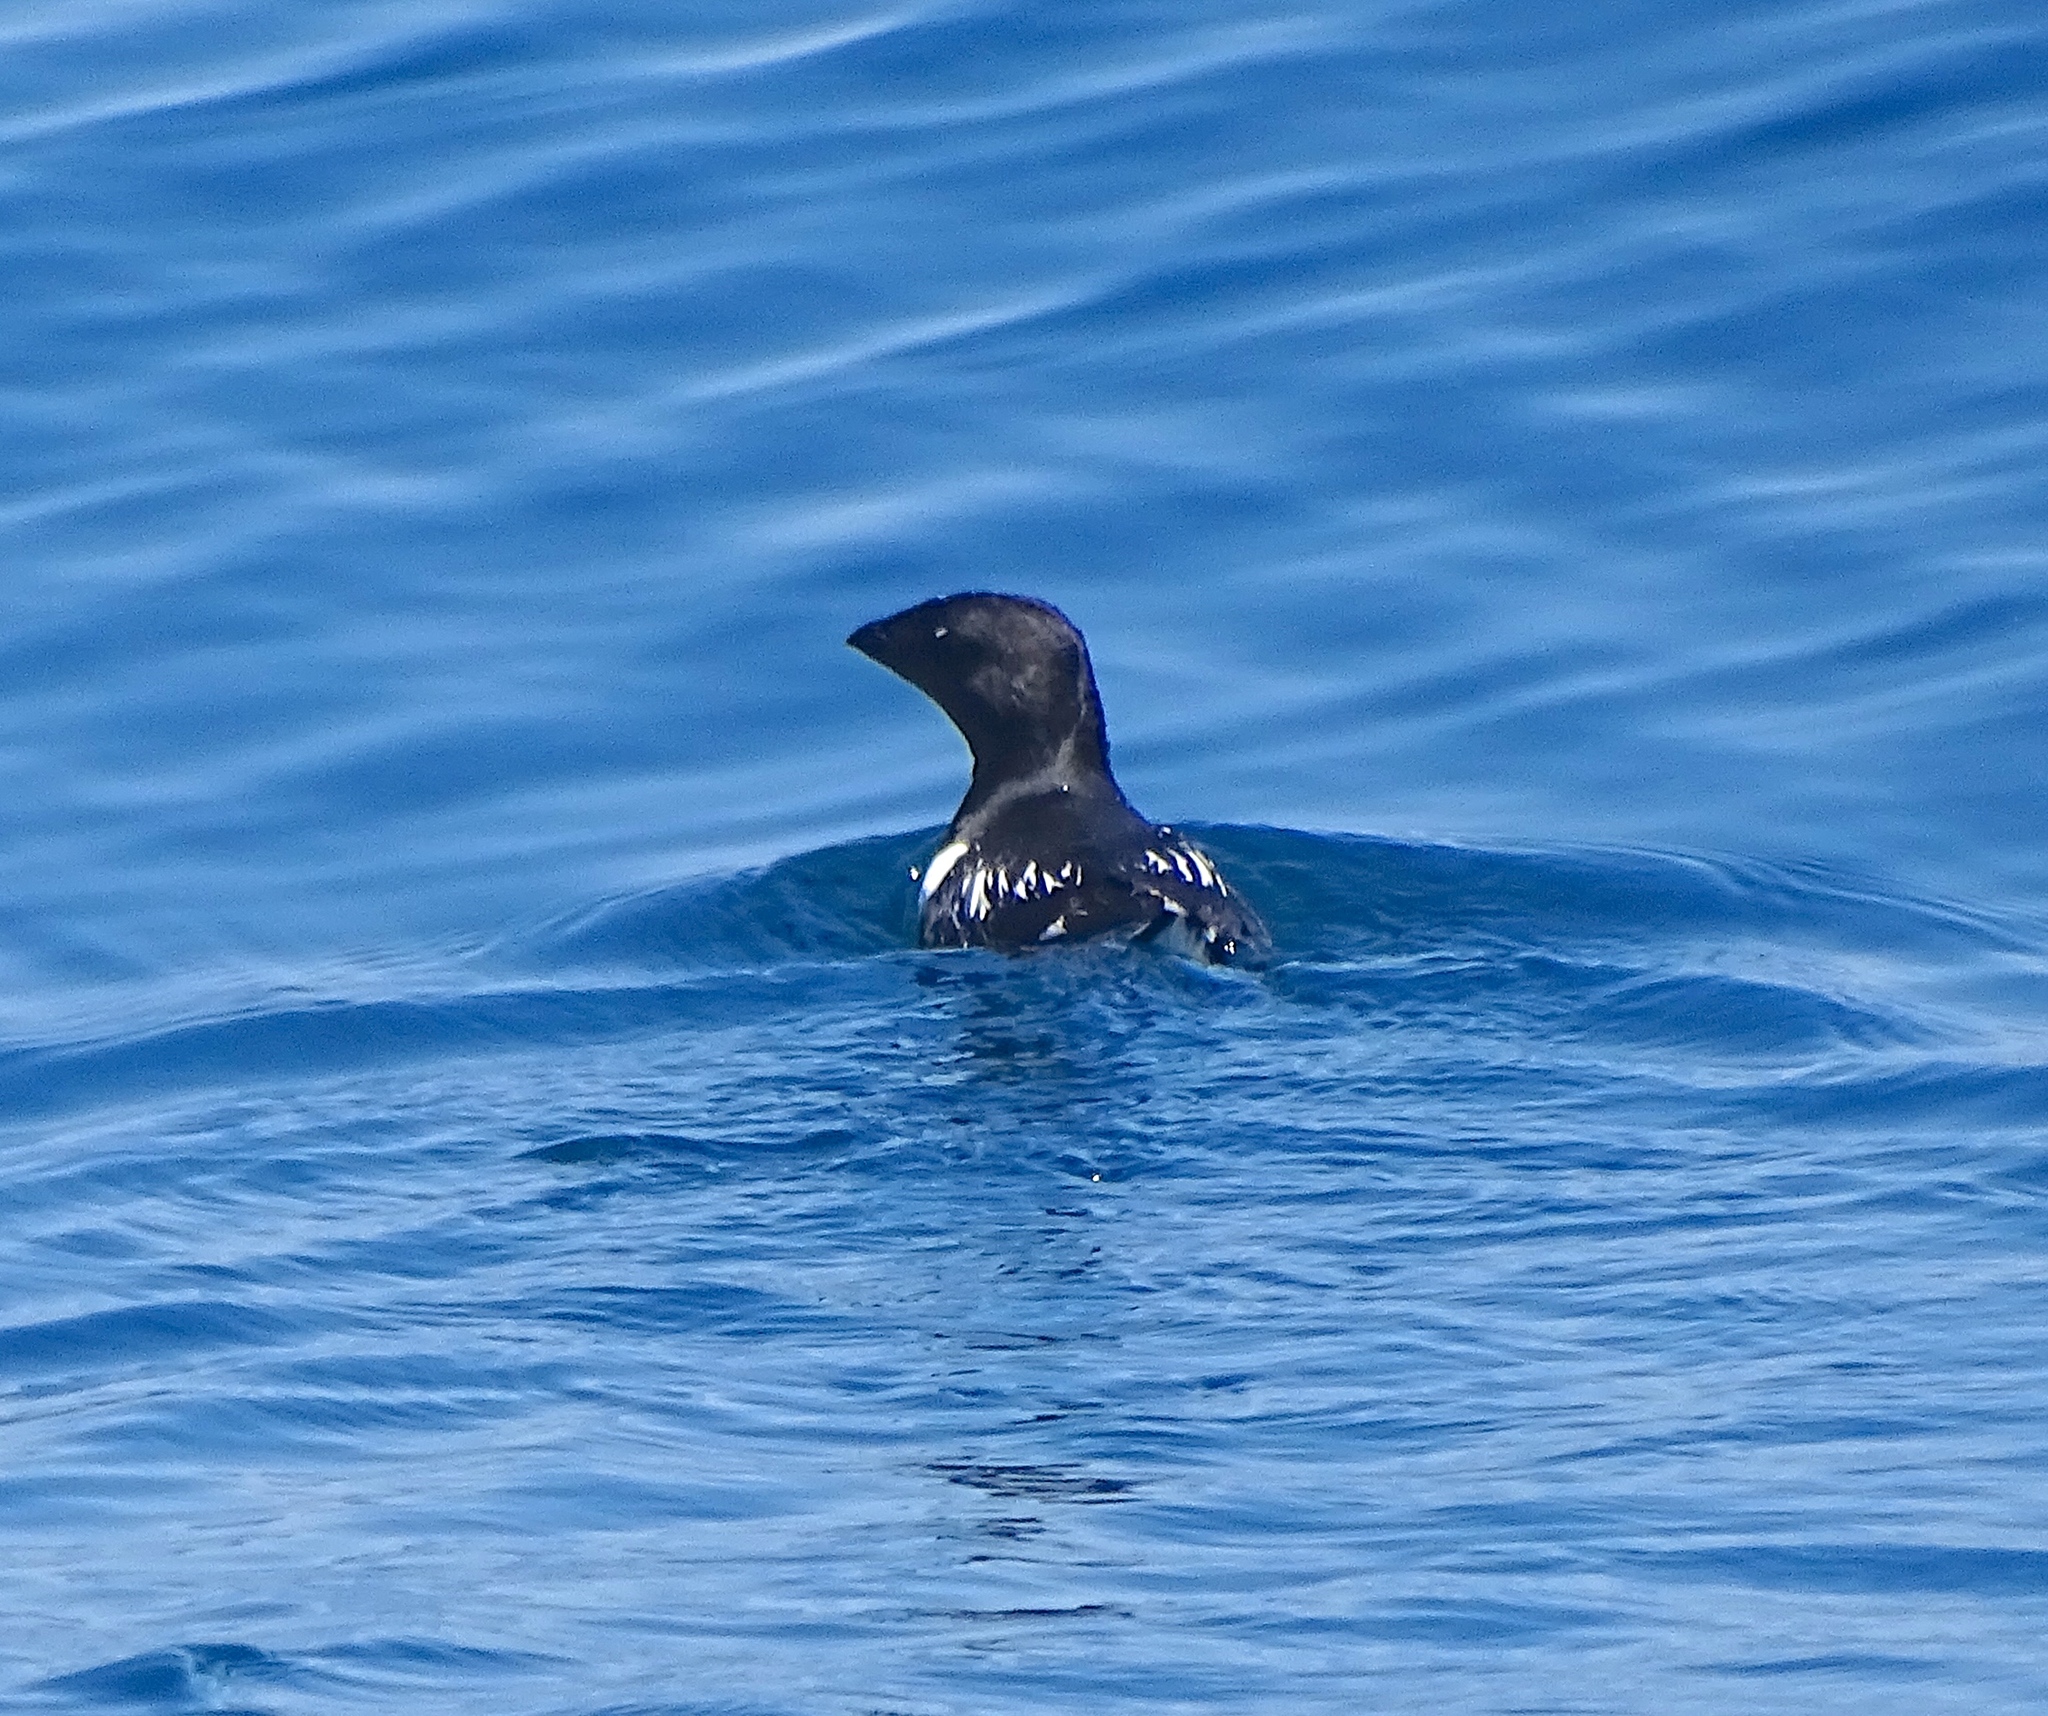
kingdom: Animalia
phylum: Chordata
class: Aves
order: Charadriiformes
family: Alcidae
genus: Alle
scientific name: Alle alle
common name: Little auk
